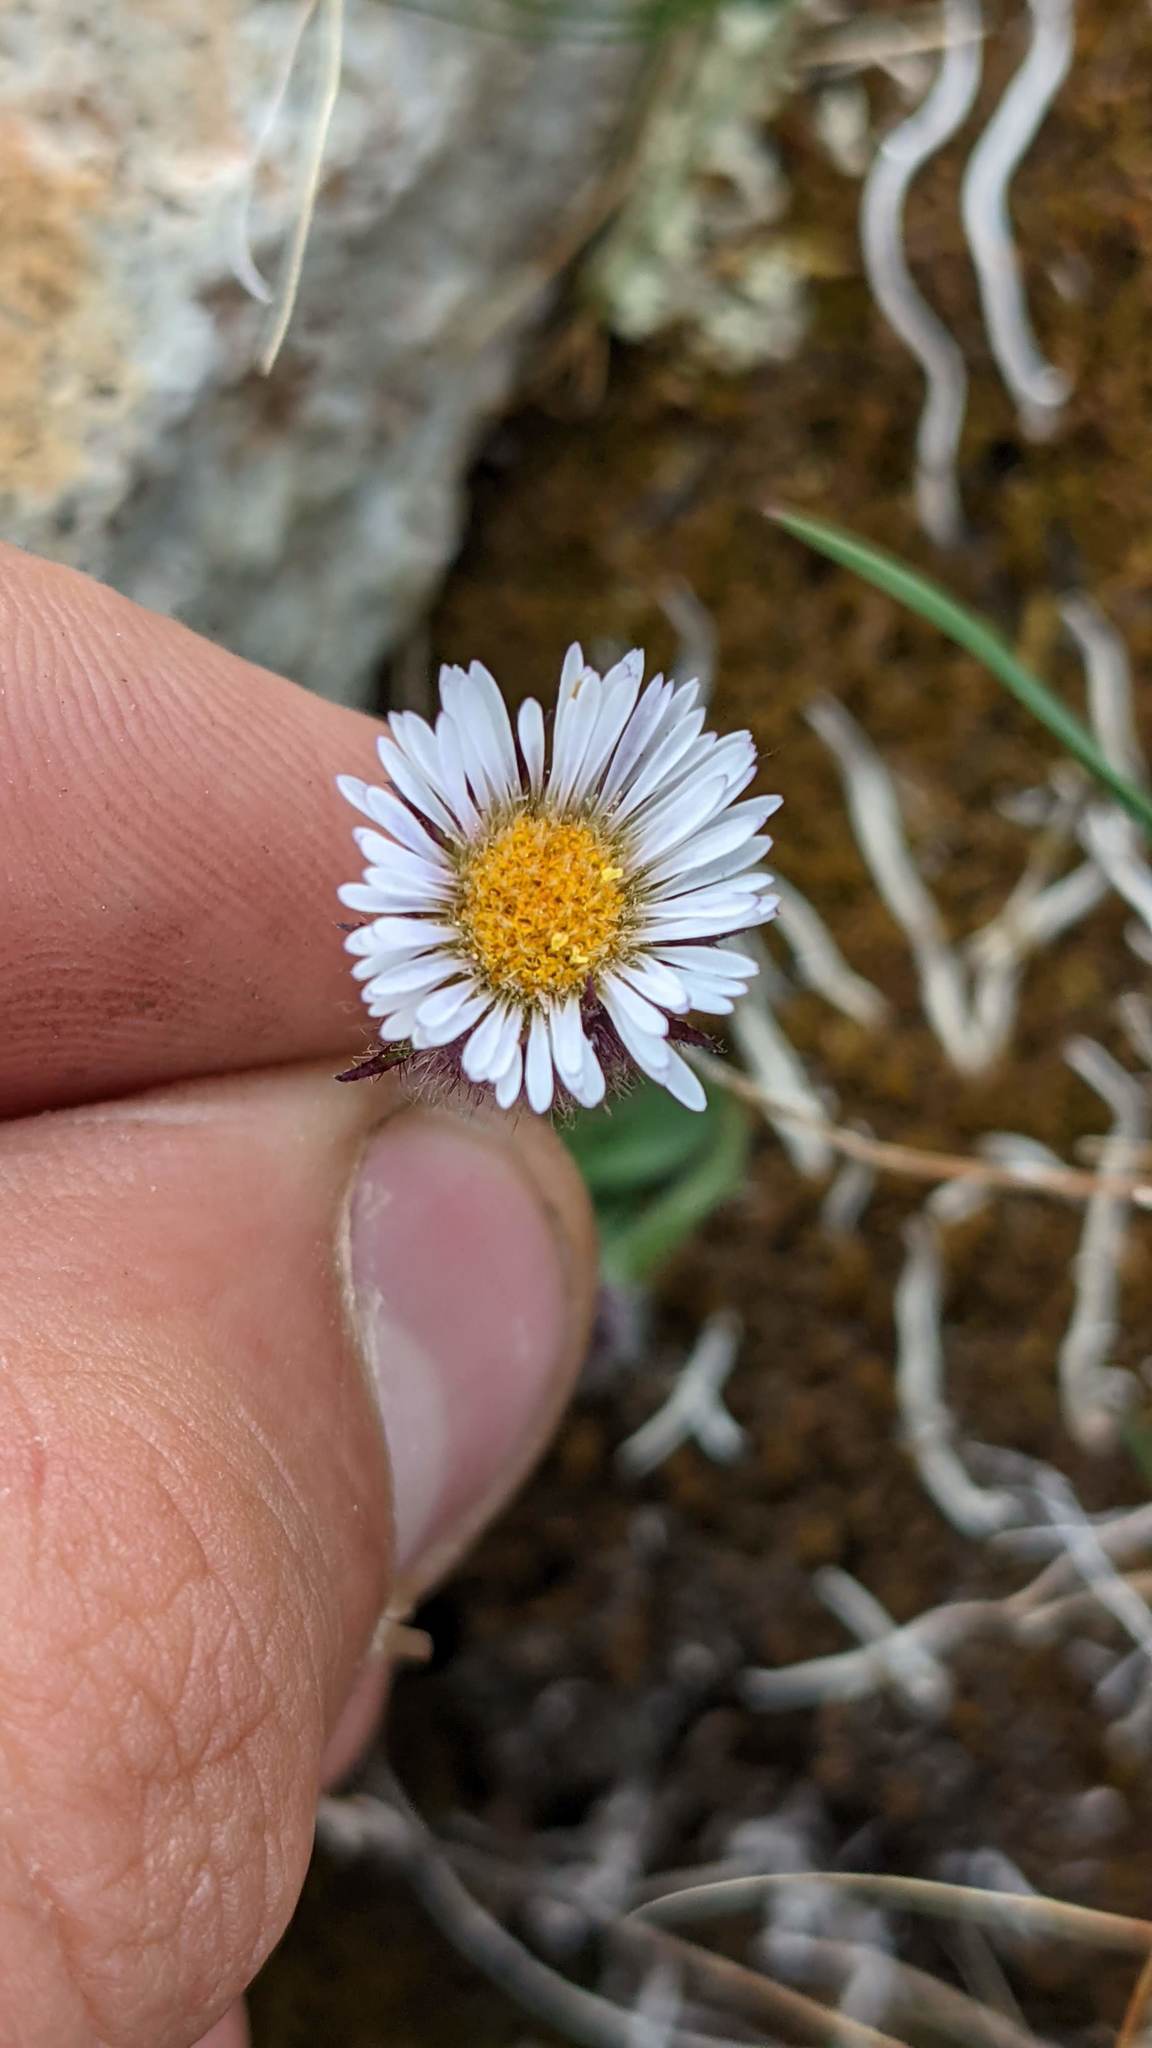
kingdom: Plantae
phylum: Tracheophyta
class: Magnoliopsida
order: Asterales
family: Asteraceae
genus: Erigeron
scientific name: Erigeron humilis
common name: Arctic-alpine fleabane
